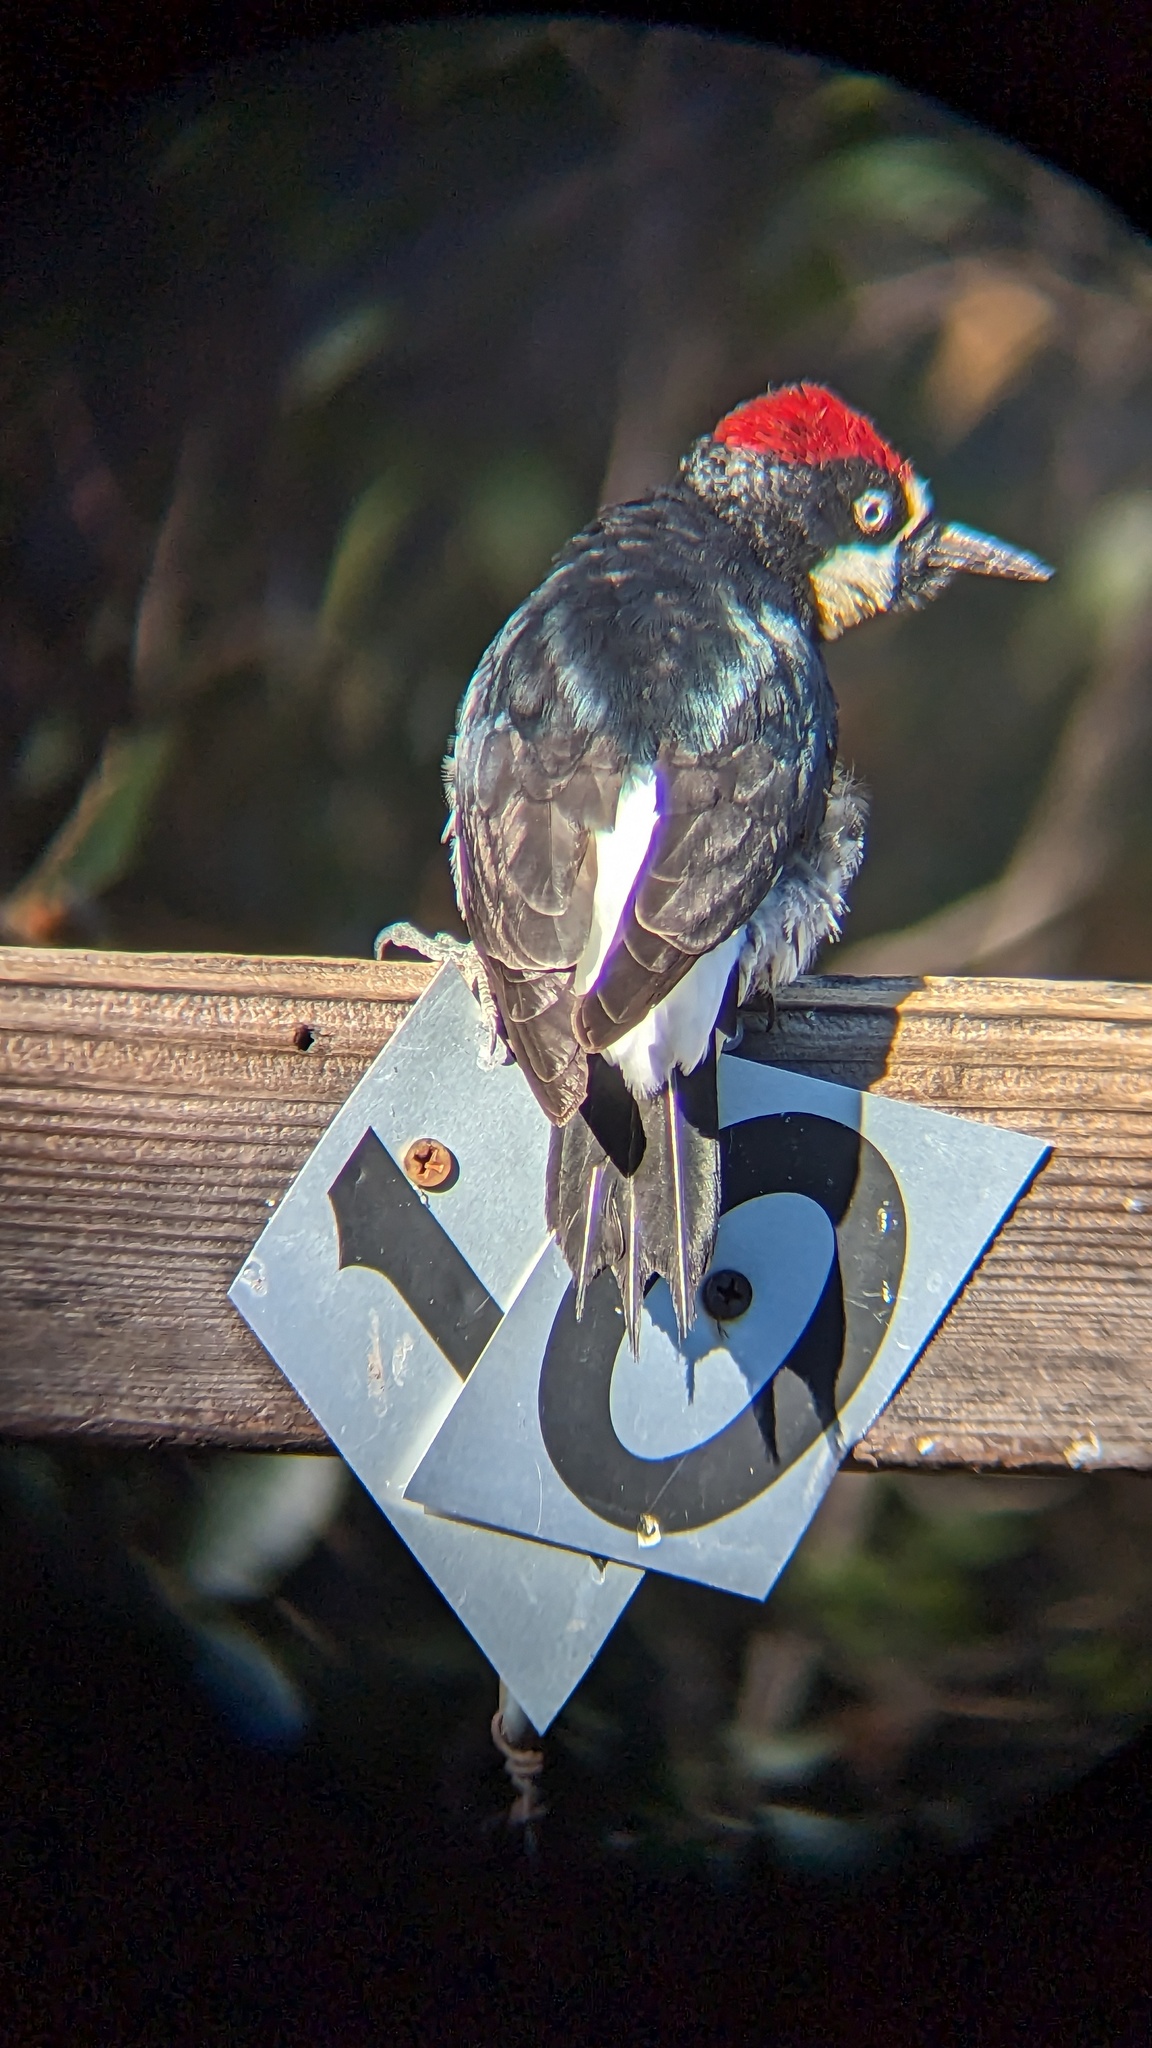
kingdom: Animalia
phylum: Chordata
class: Aves
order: Piciformes
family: Picidae
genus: Melanerpes
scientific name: Melanerpes formicivorus
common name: Acorn woodpecker
